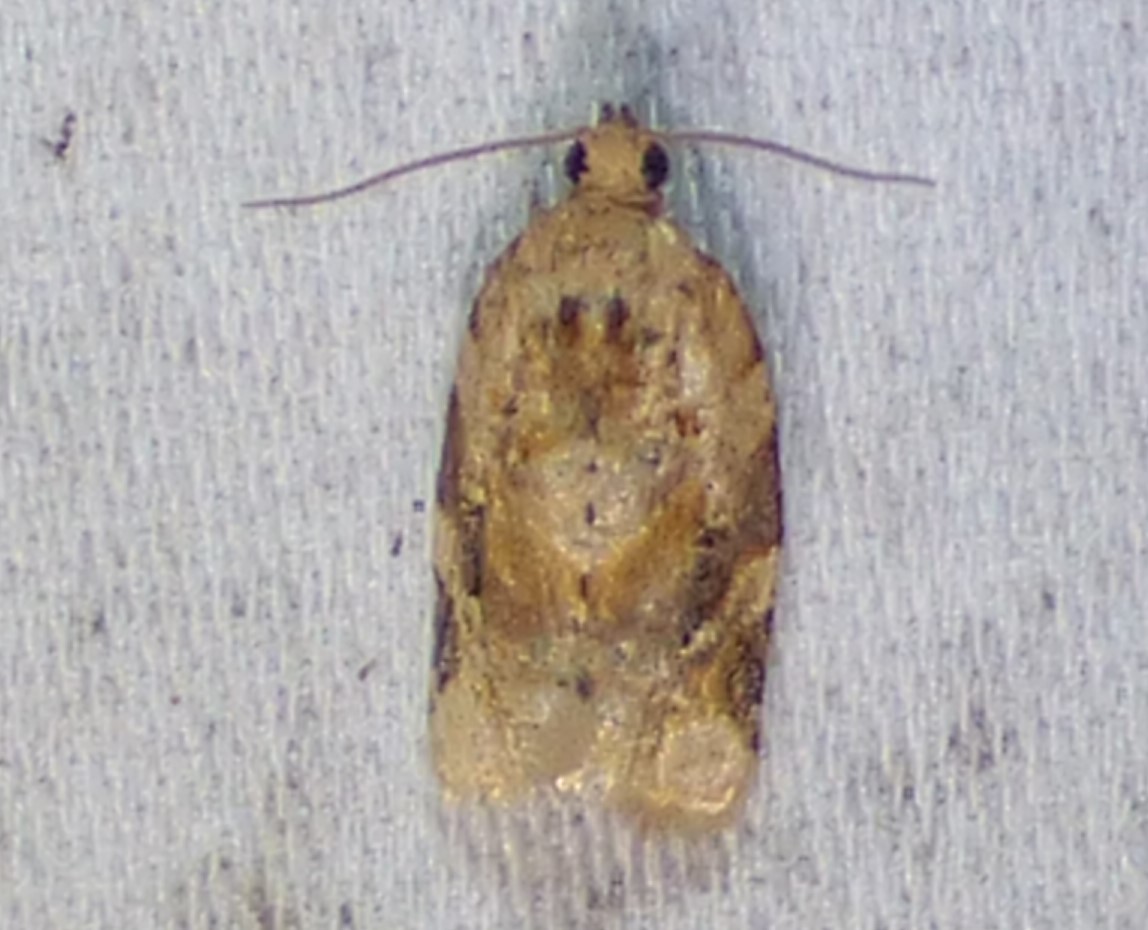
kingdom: Animalia
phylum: Arthropoda
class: Insecta
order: Lepidoptera
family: Tortricidae
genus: Argyrotaenia
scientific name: Argyrotaenia velutinana
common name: Red-banded leafroller moth
